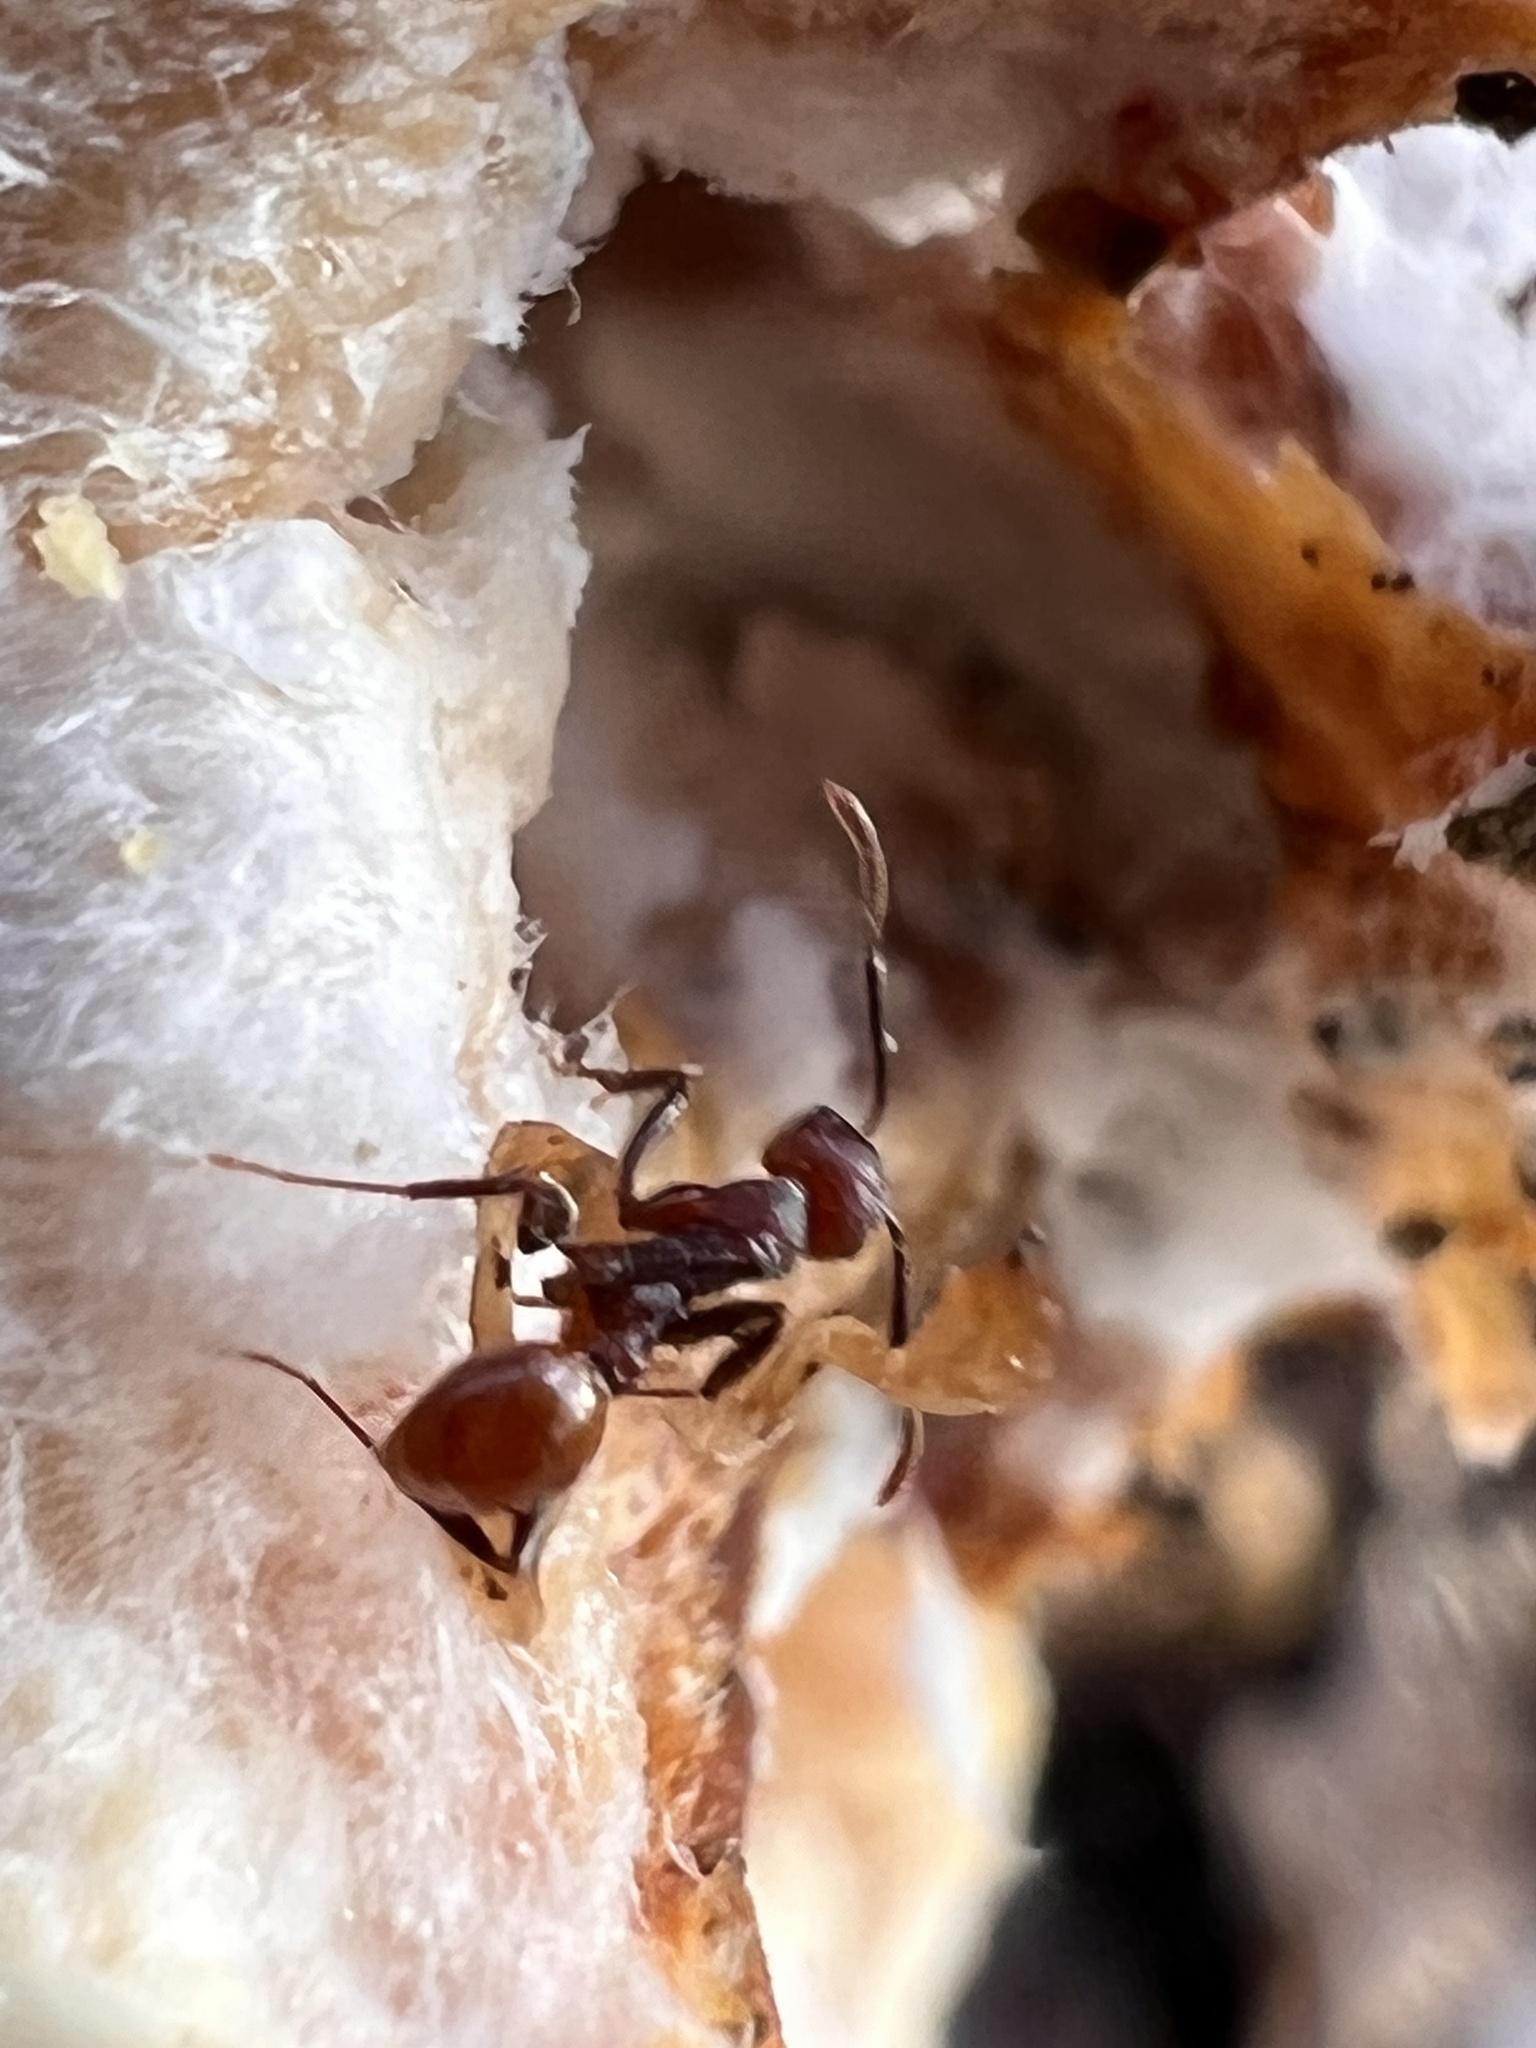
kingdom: Animalia
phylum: Arthropoda
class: Insecta
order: Hymenoptera
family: Formicidae
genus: Aphaenogaster
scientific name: Aphaenogaster tennesseensis
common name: Tennessee thread-waisted ant
